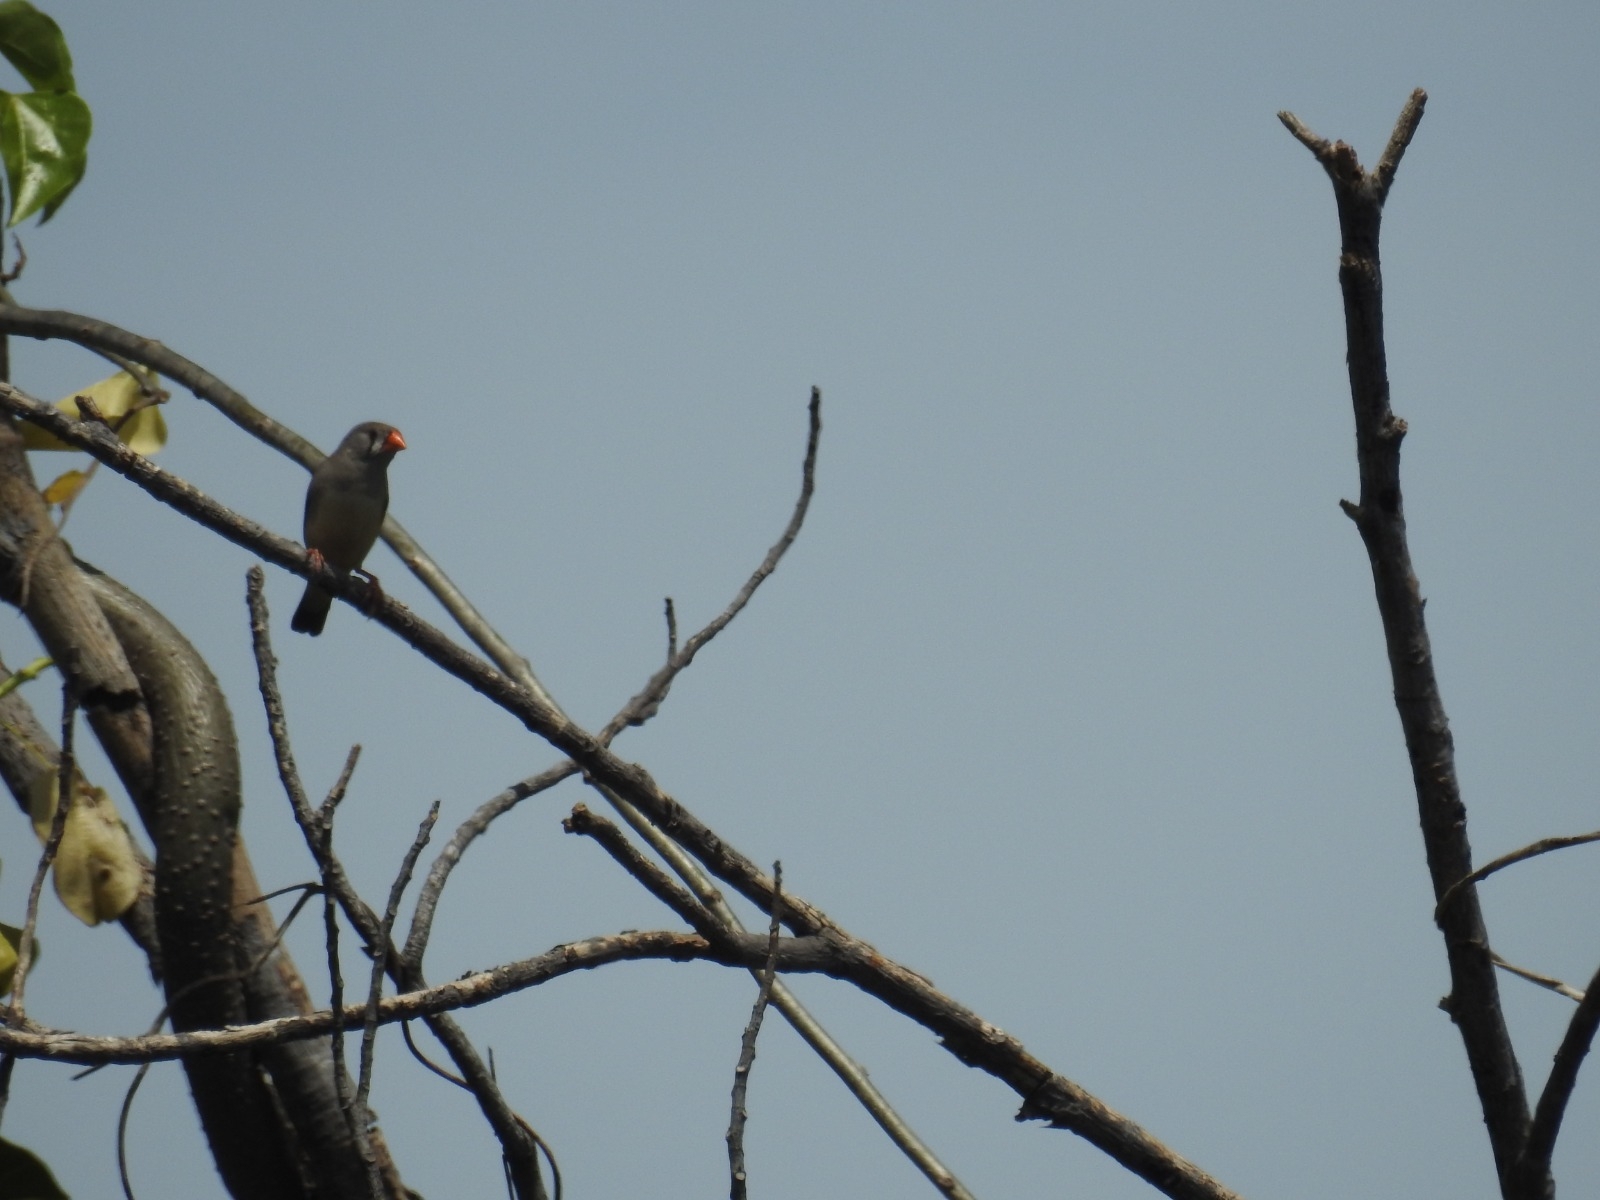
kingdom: Animalia
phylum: Chordata
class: Aves
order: Passeriformes
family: Estrildidae
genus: Taeniopygia
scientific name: Taeniopygia guttata
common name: Zebra finch
